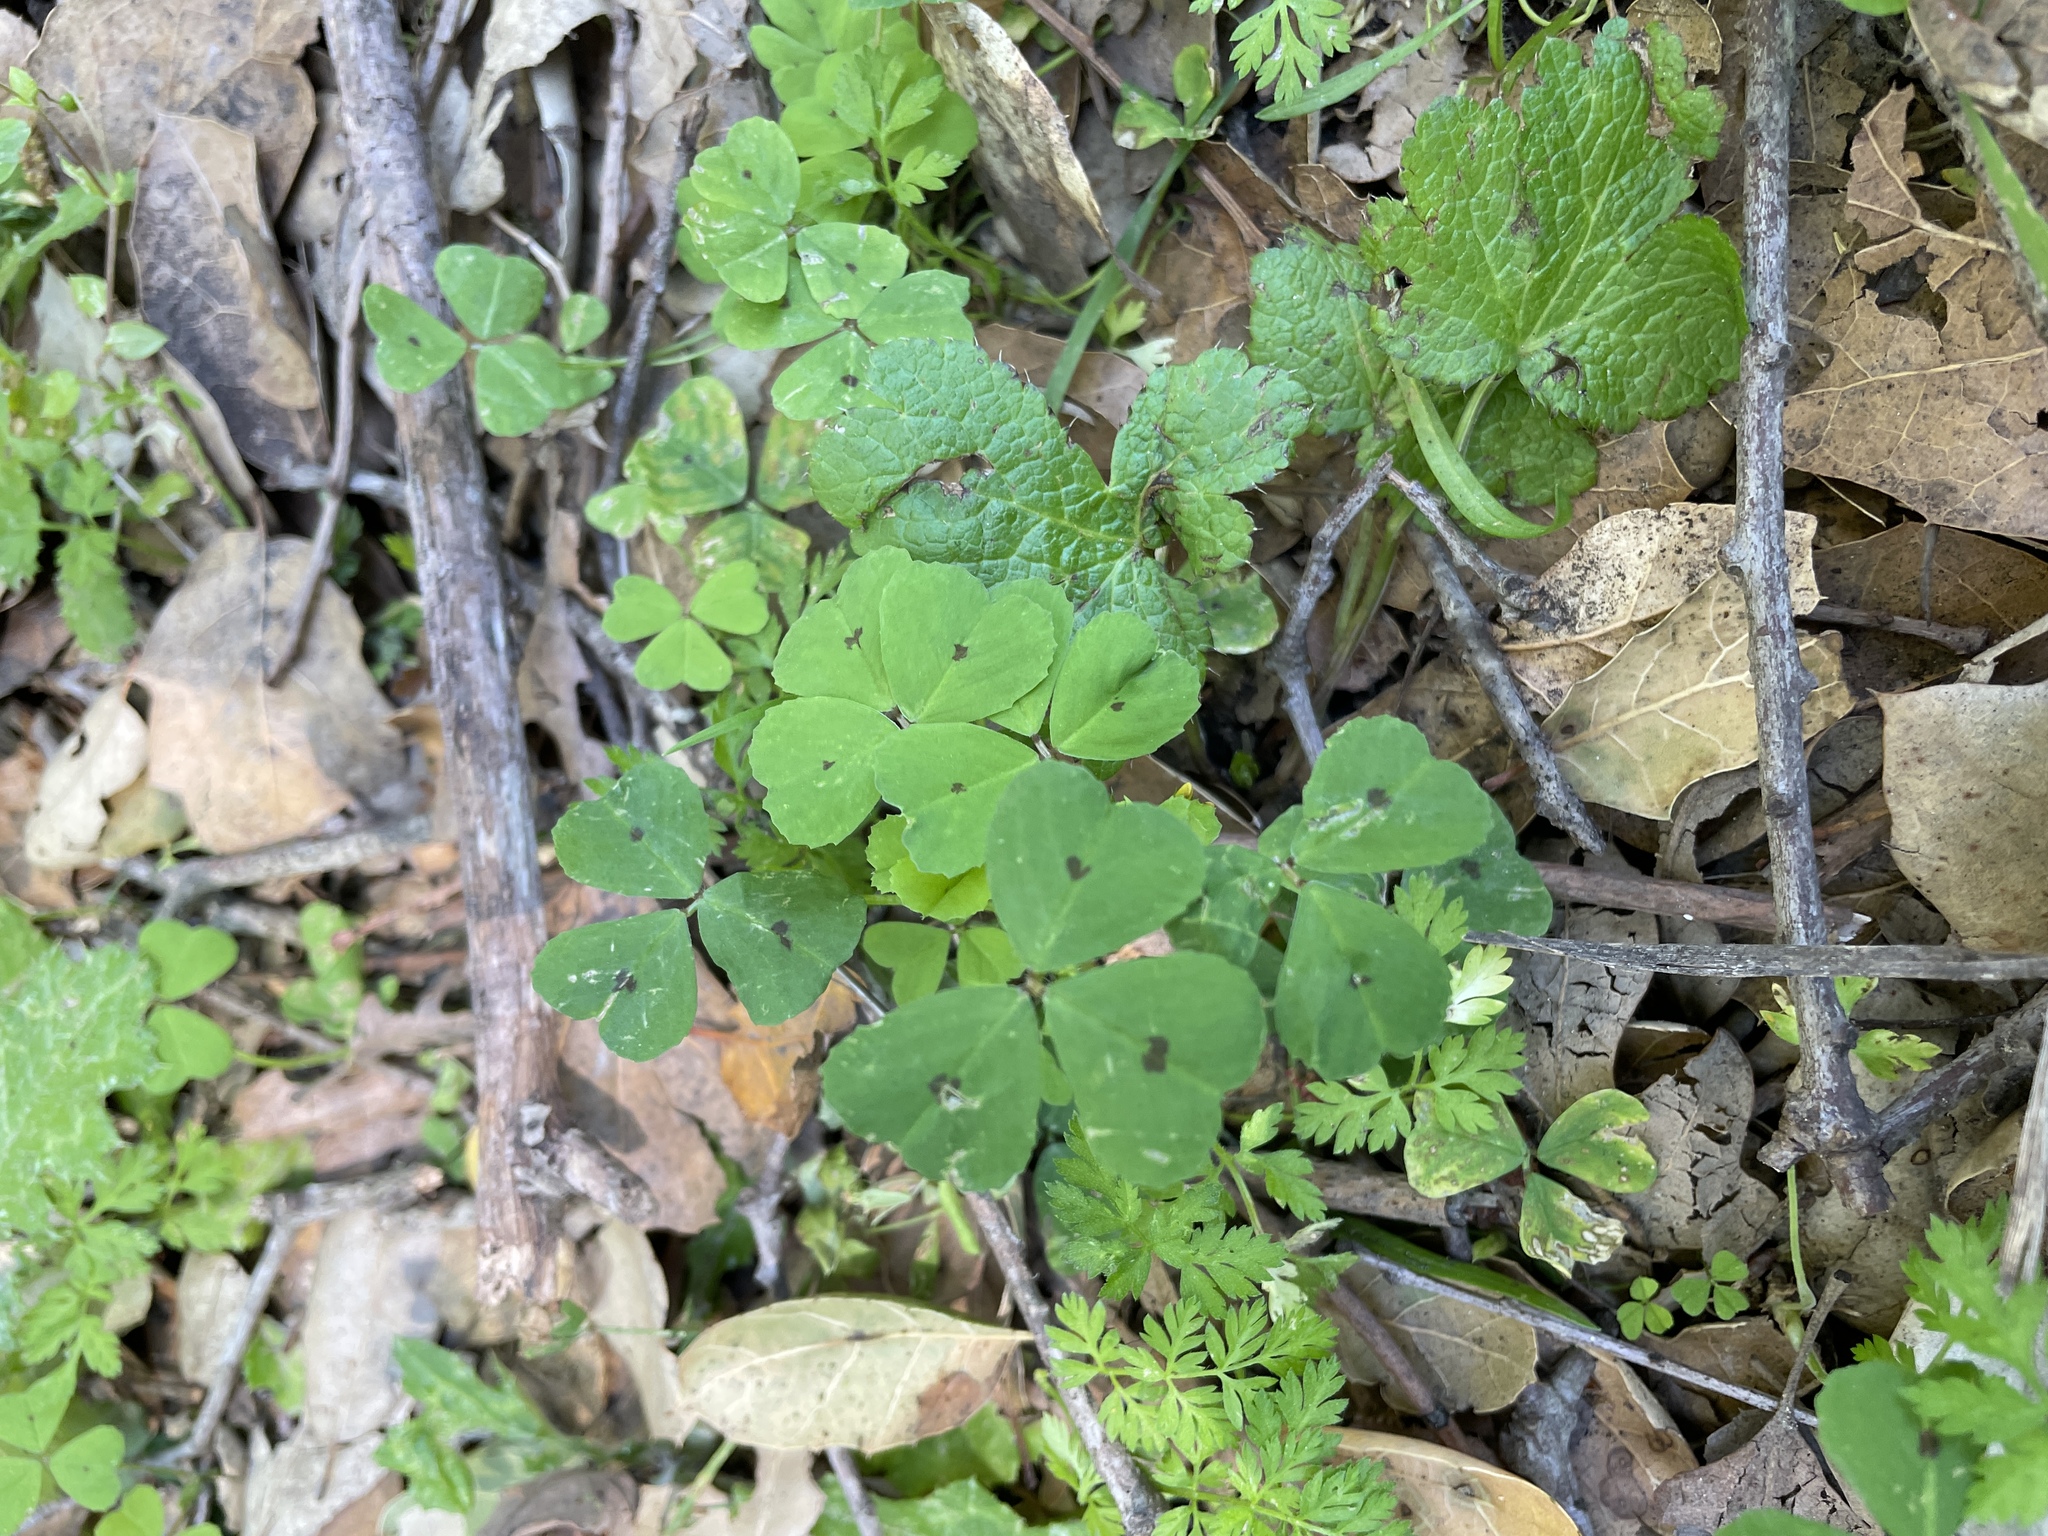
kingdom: Plantae
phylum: Tracheophyta
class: Magnoliopsida
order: Fabales
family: Fabaceae
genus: Medicago
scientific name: Medicago arabica
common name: Spotted medick
